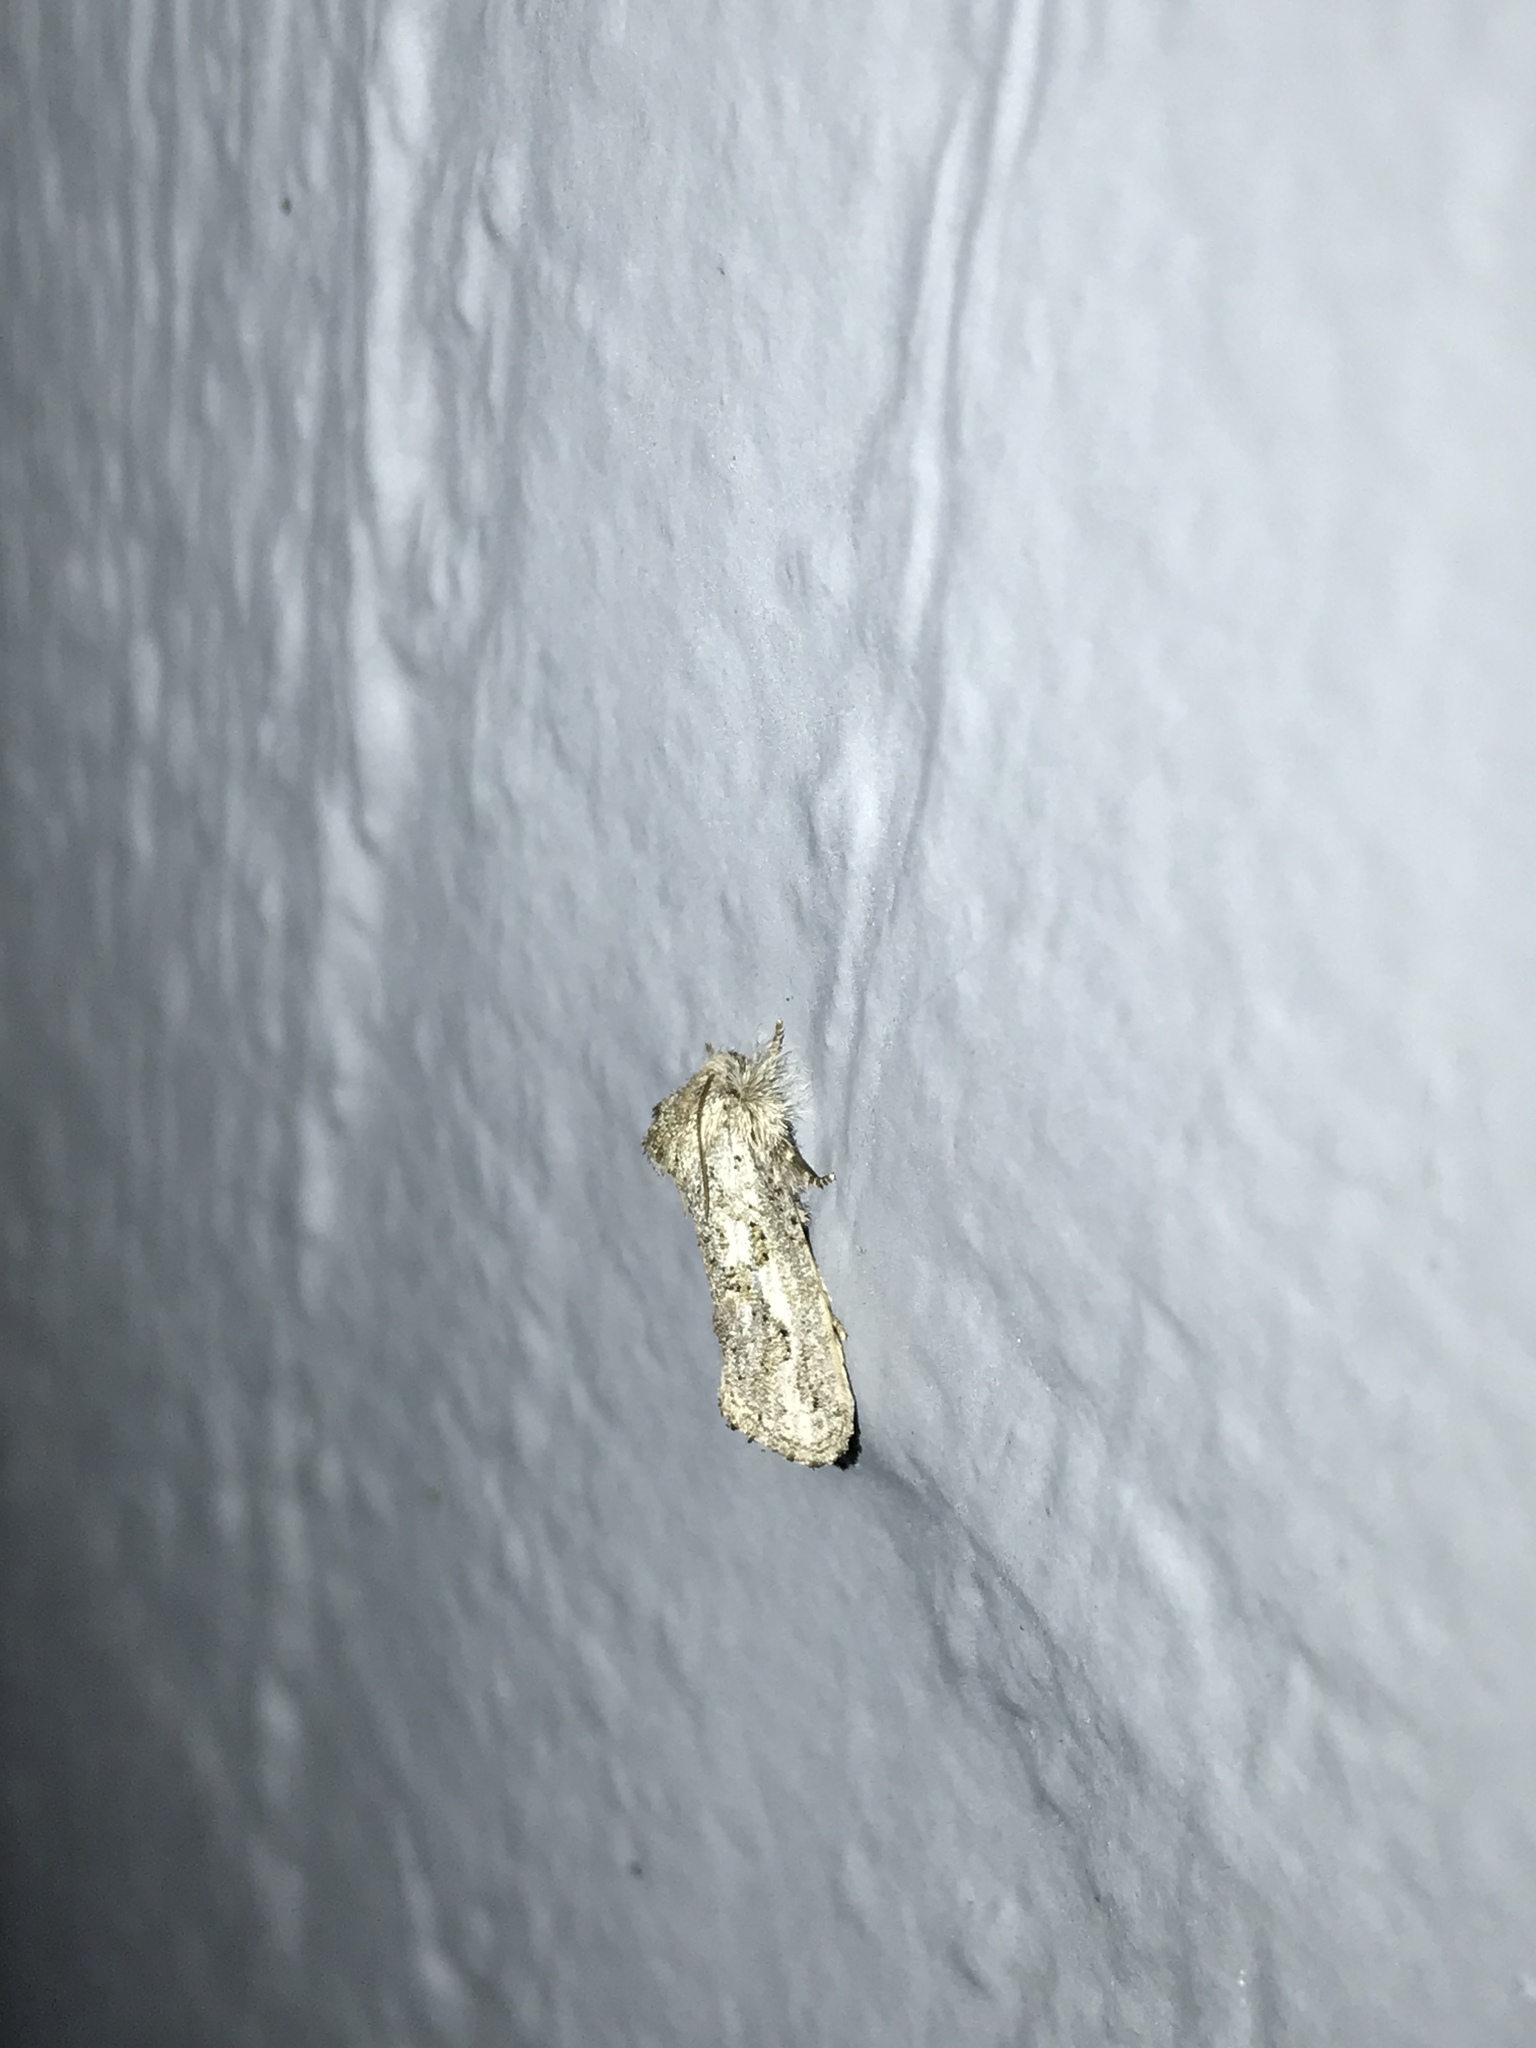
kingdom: Animalia
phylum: Arthropoda
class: Insecta
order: Lepidoptera
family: Tineidae
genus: Acrolophus
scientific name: Acrolophus griseus
